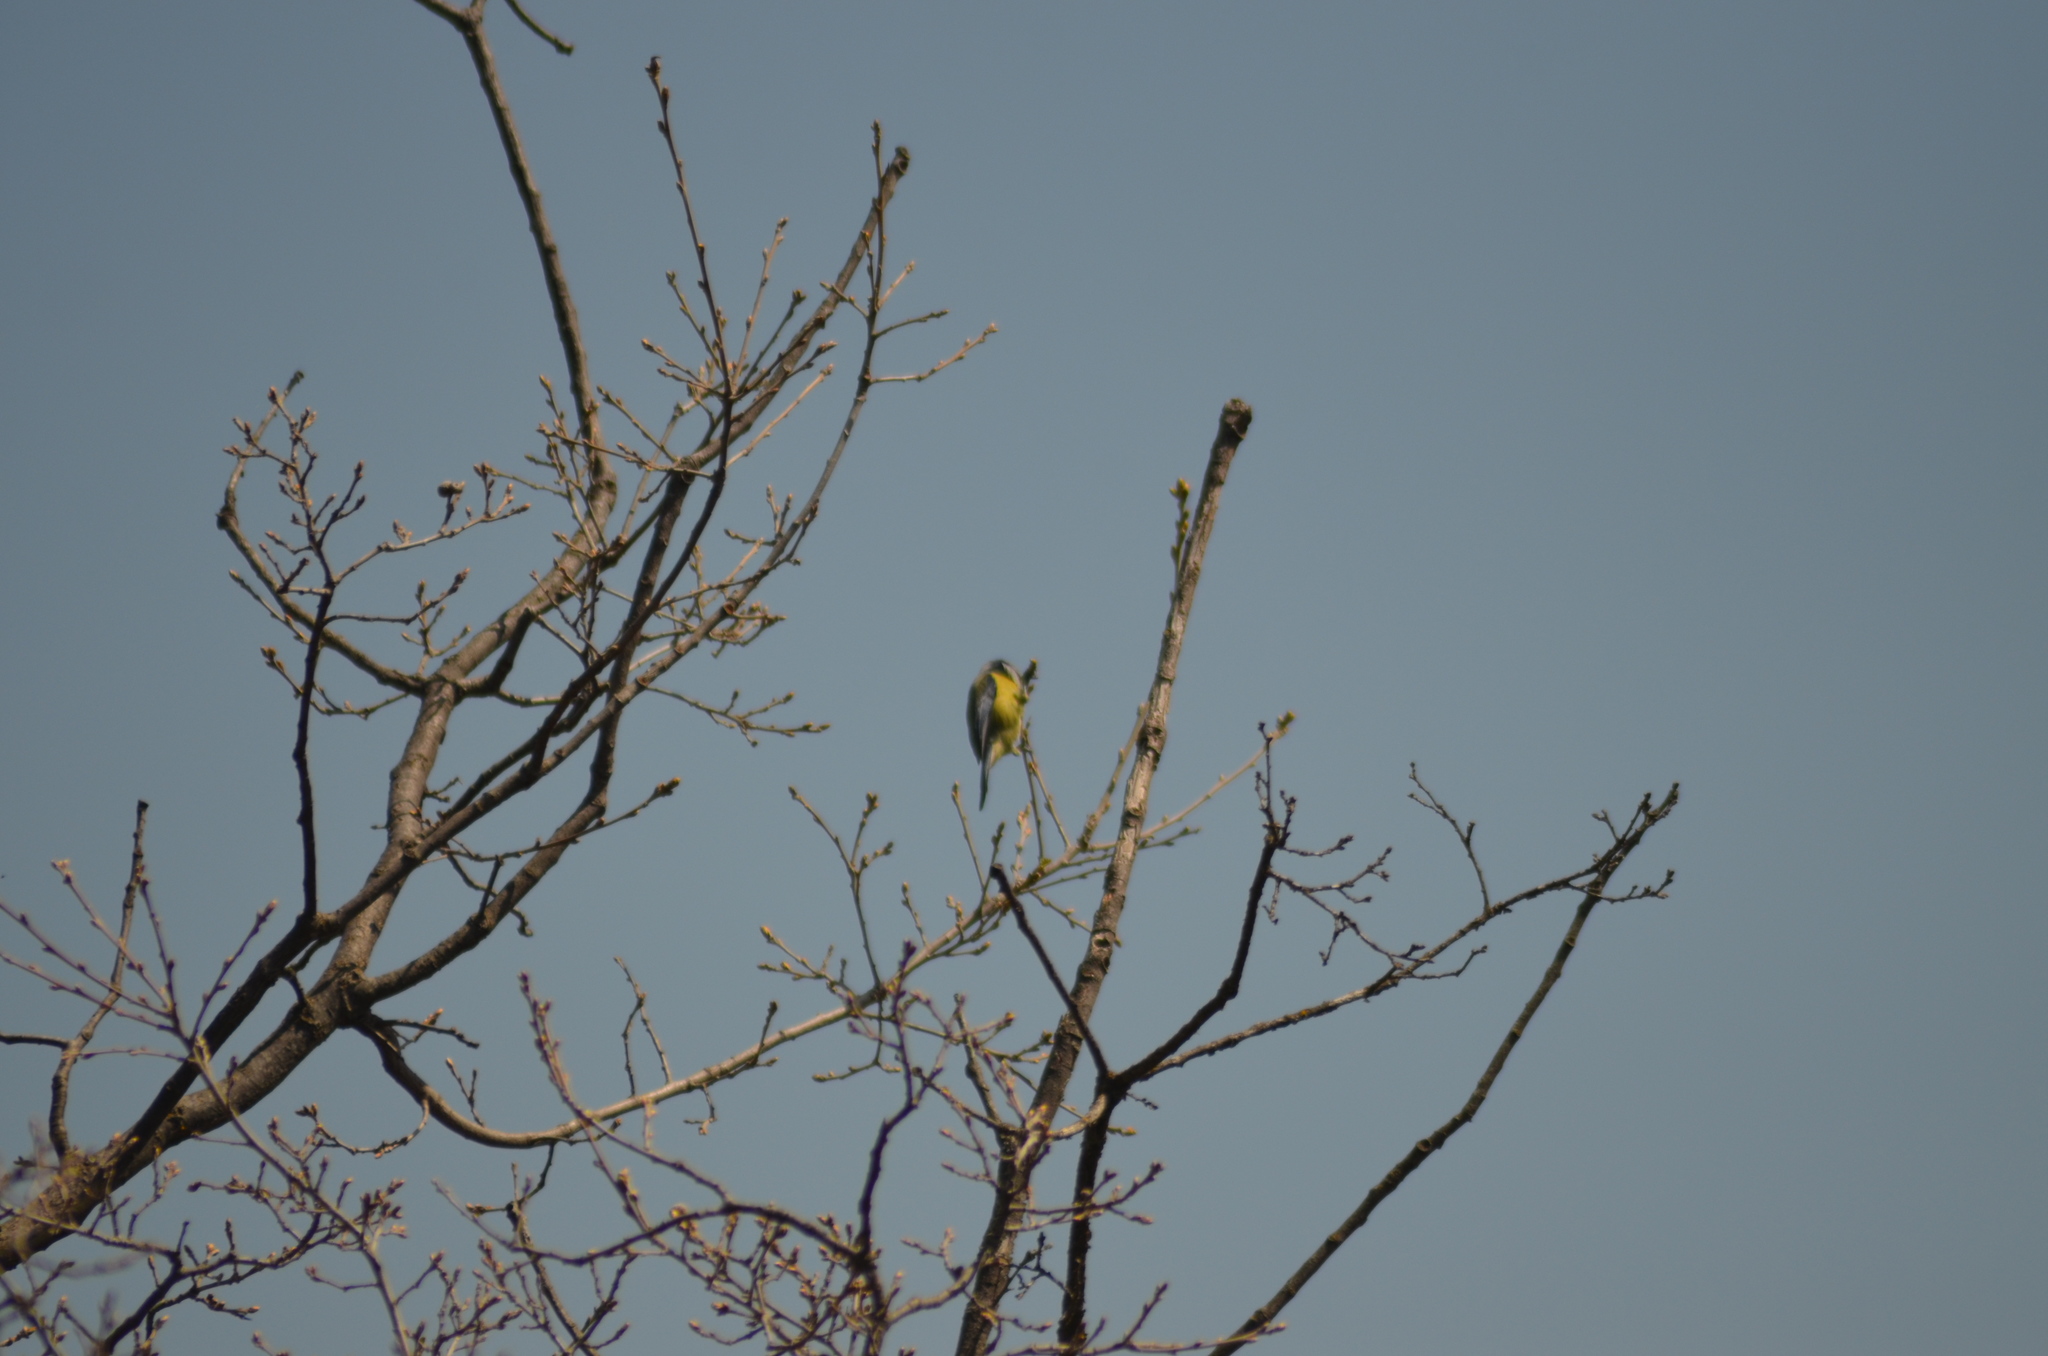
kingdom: Animalia
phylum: Chordata
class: Aves
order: Passeriformes
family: Paridae
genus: Cyanistes
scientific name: Cyanistes caeruleus
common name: Eurasian blue tit
